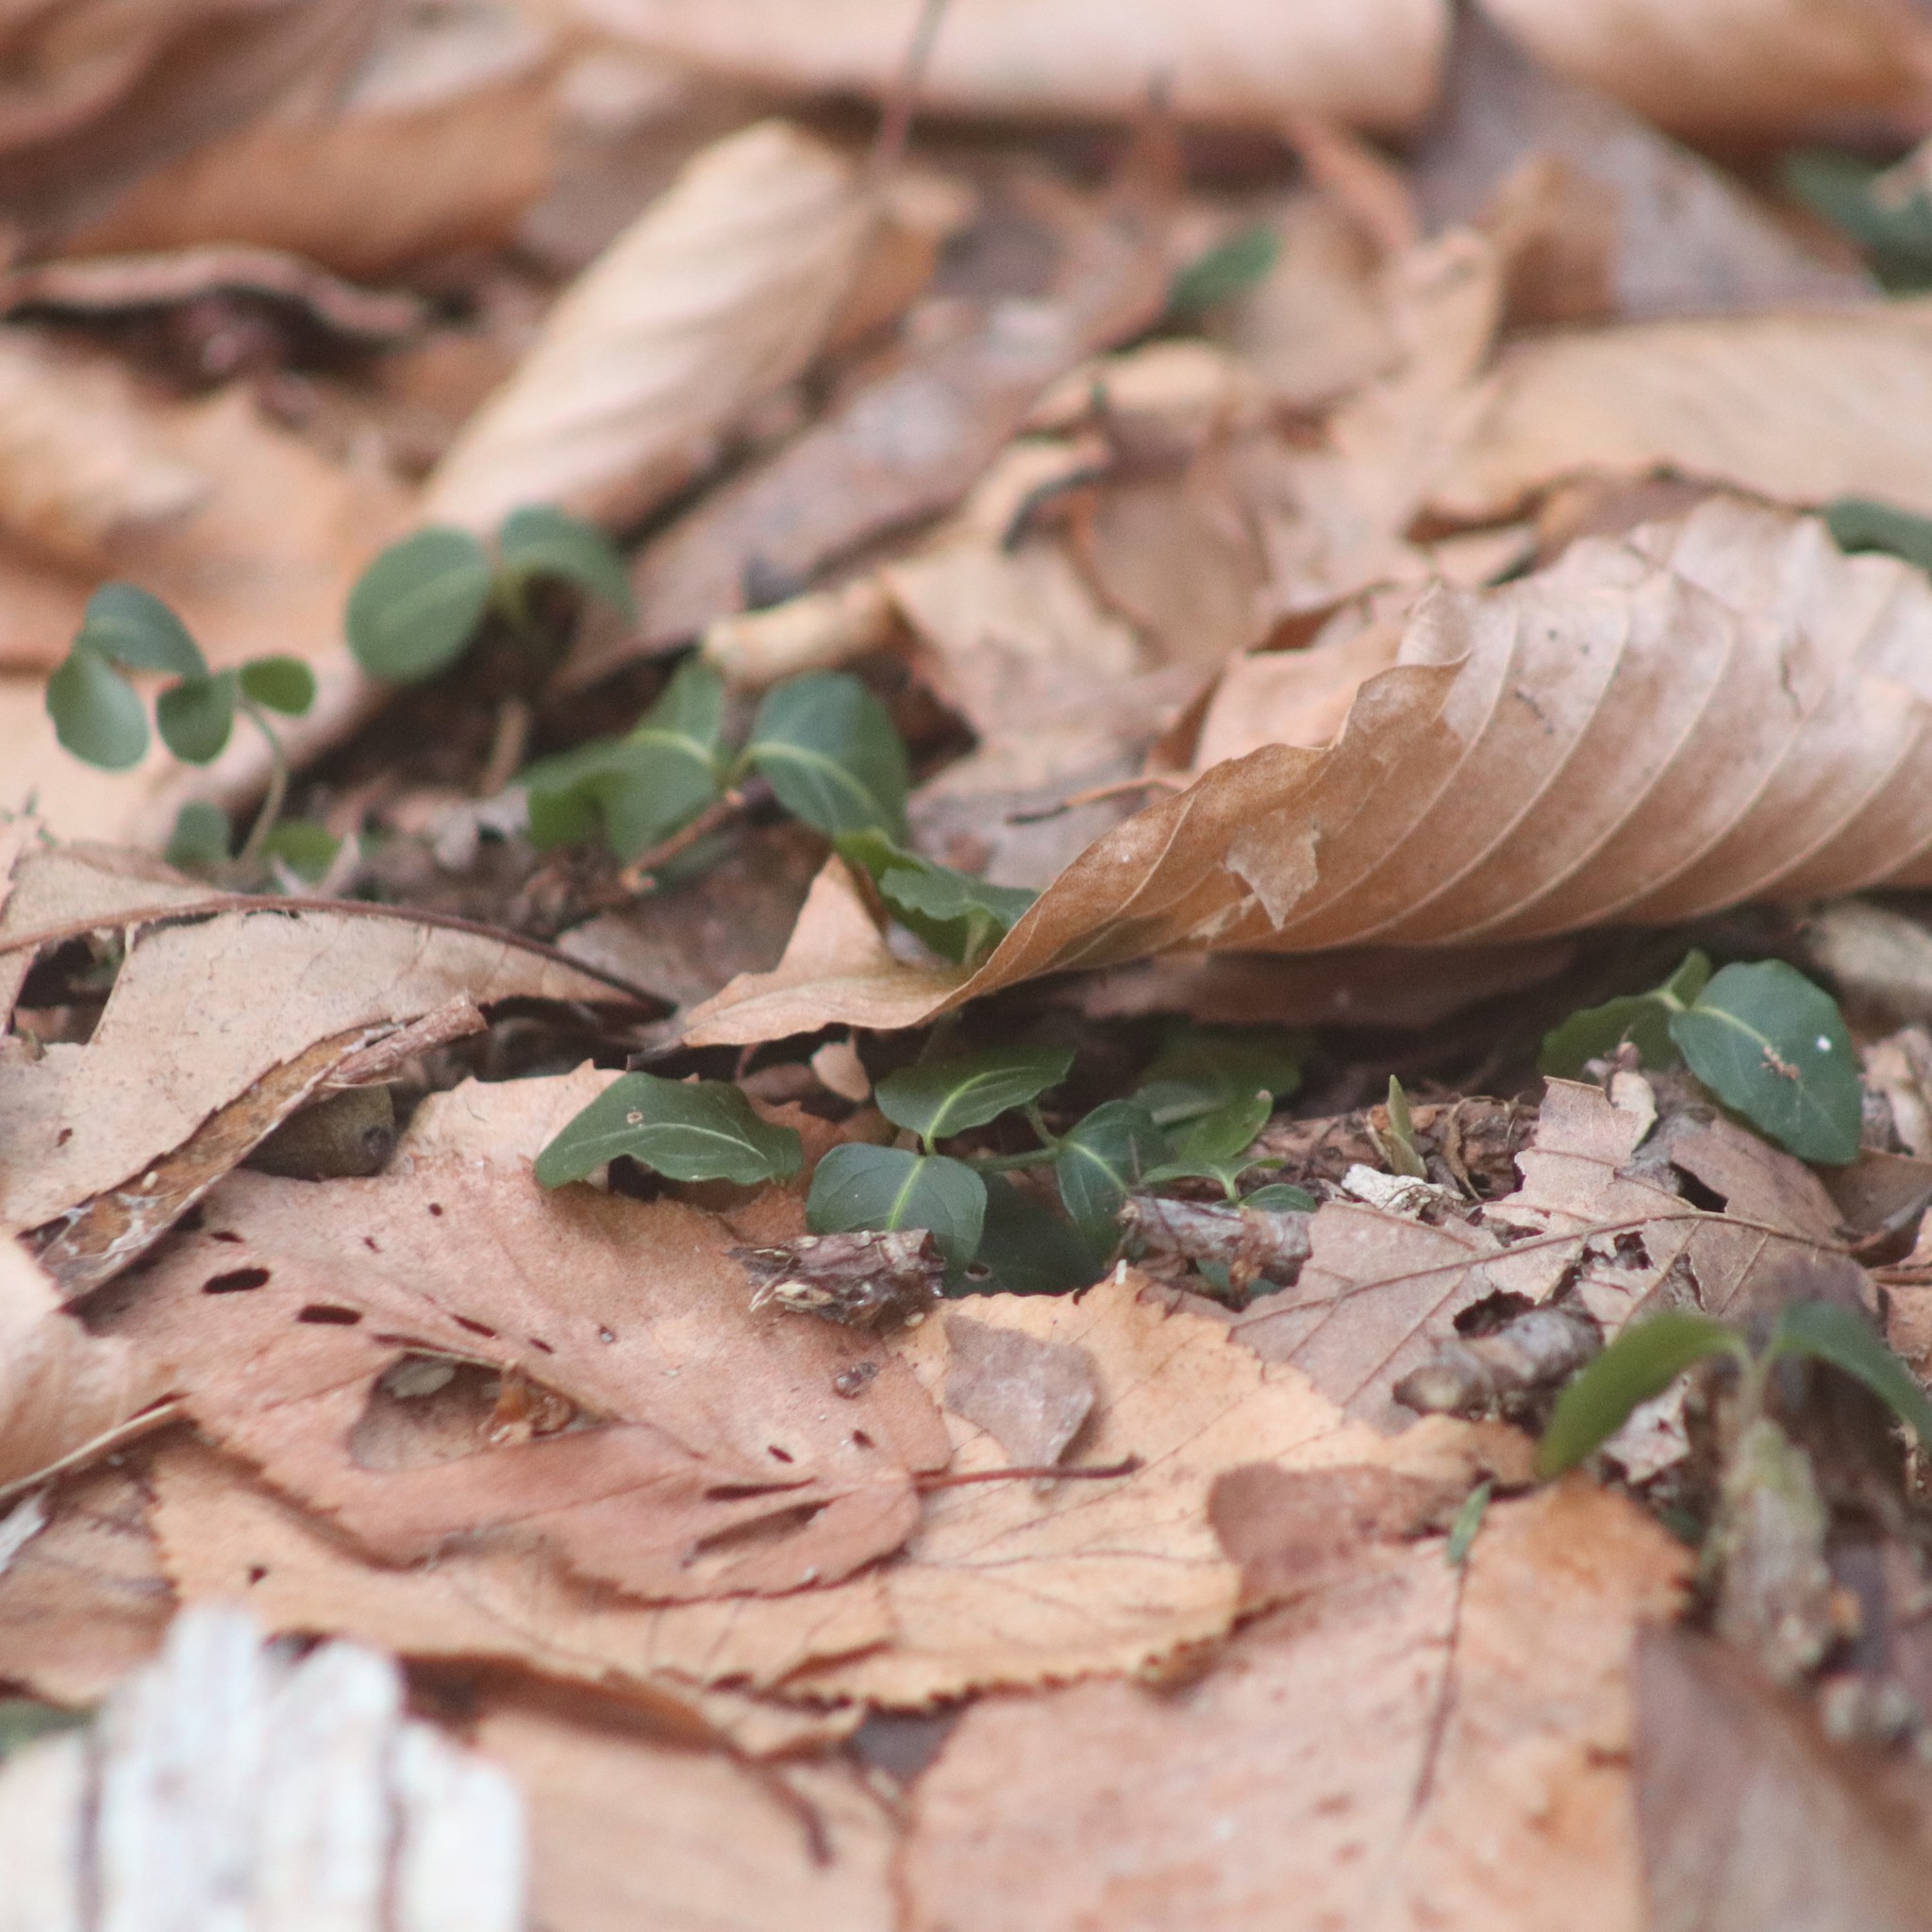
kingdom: Plantae
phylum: Tracheophyta
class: Magnoliopsida
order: Gentianales
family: Rubiaceae
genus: Mitchella
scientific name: Mitchella repens
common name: Partridge-berry
